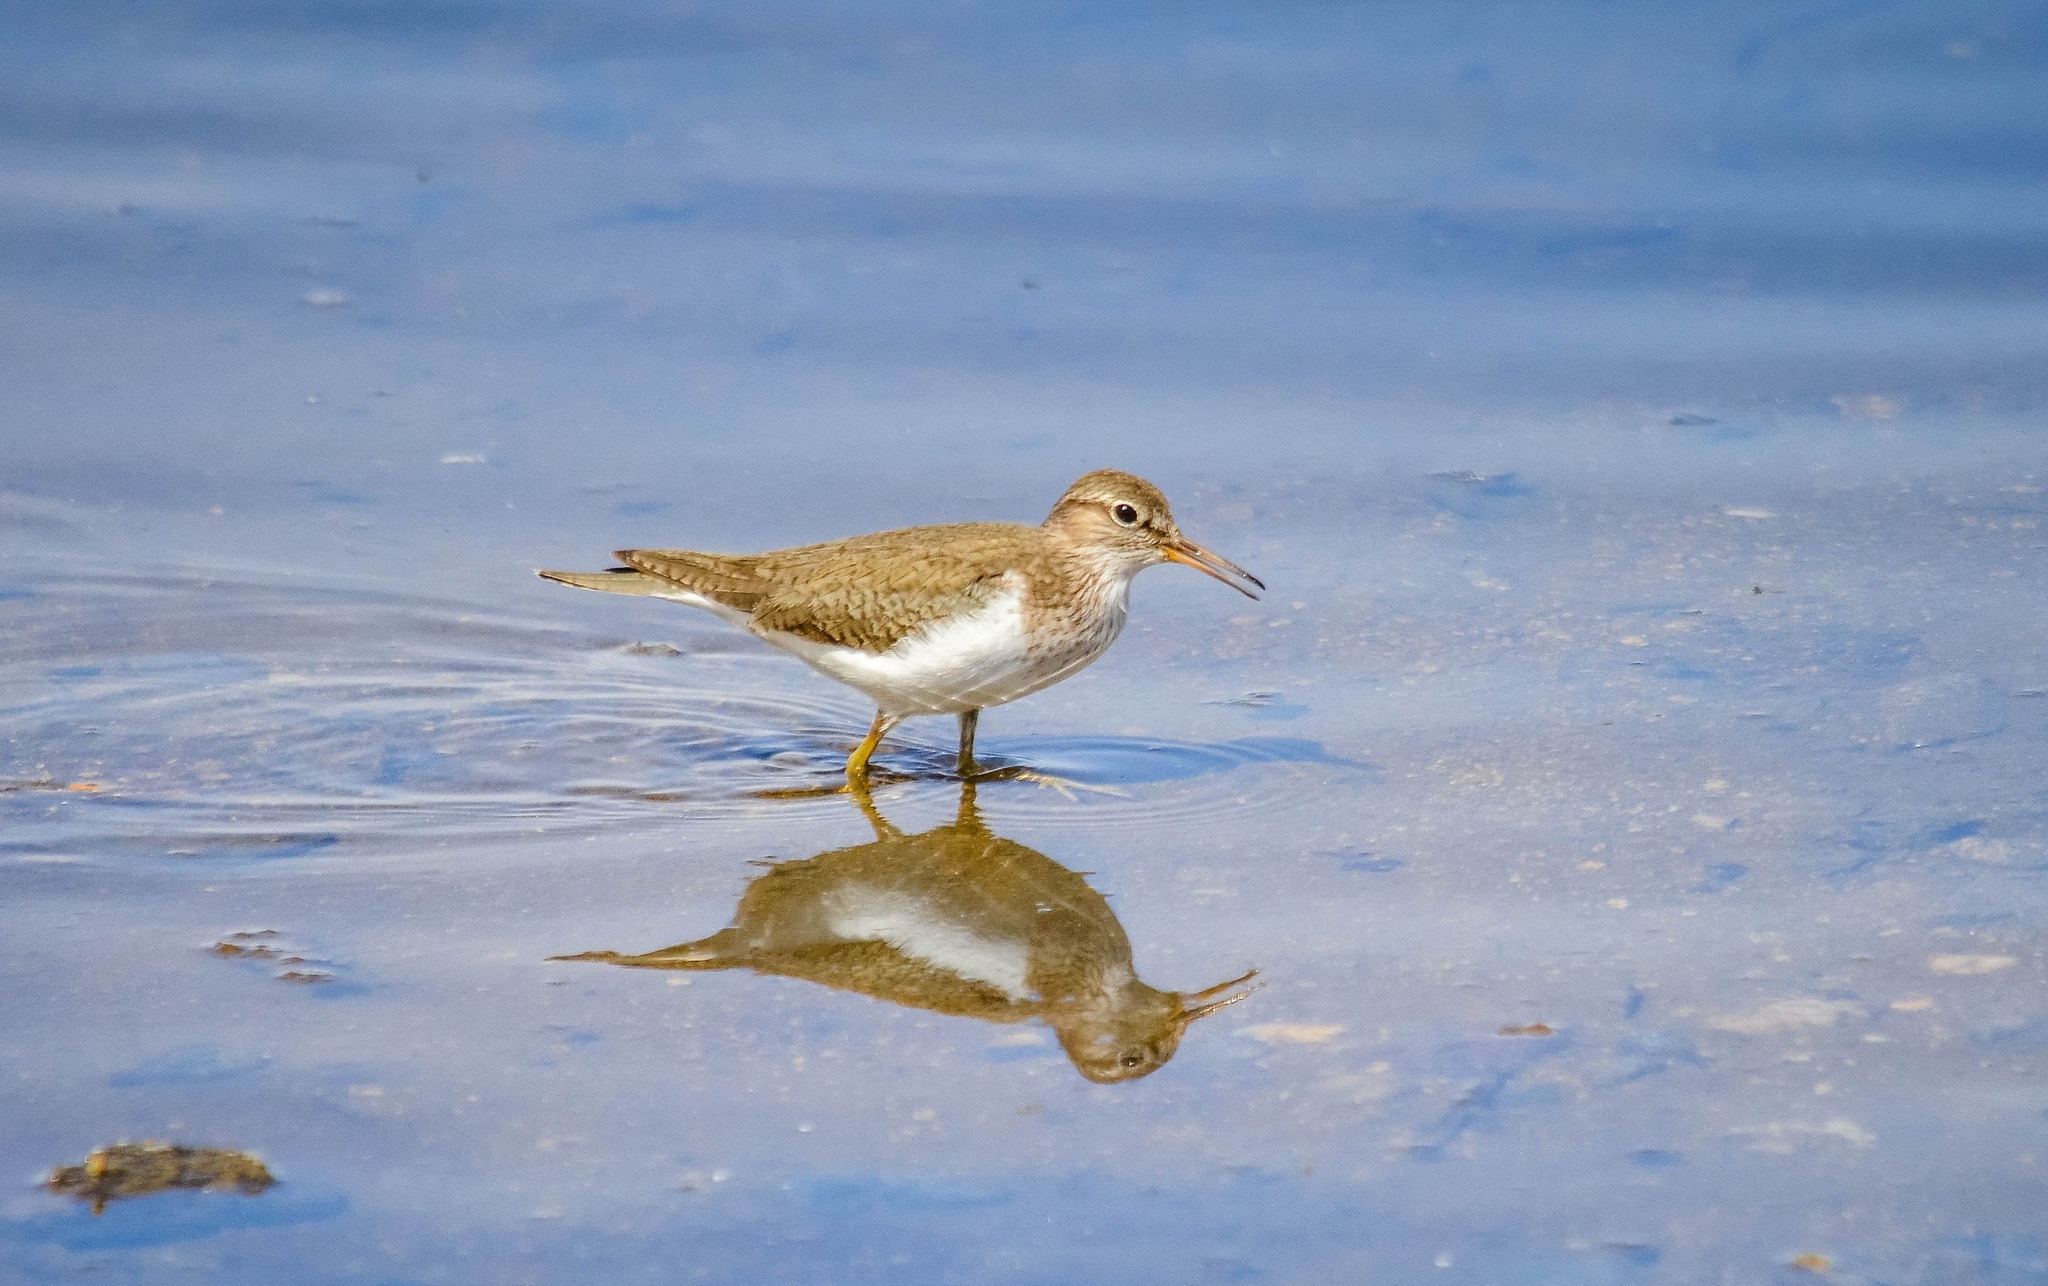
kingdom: Animalia
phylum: Chordata
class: Aves
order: Charadriiformes
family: Scolopacidae
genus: Actitis
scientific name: Actitis hypoleucos
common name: Common sandpiper
